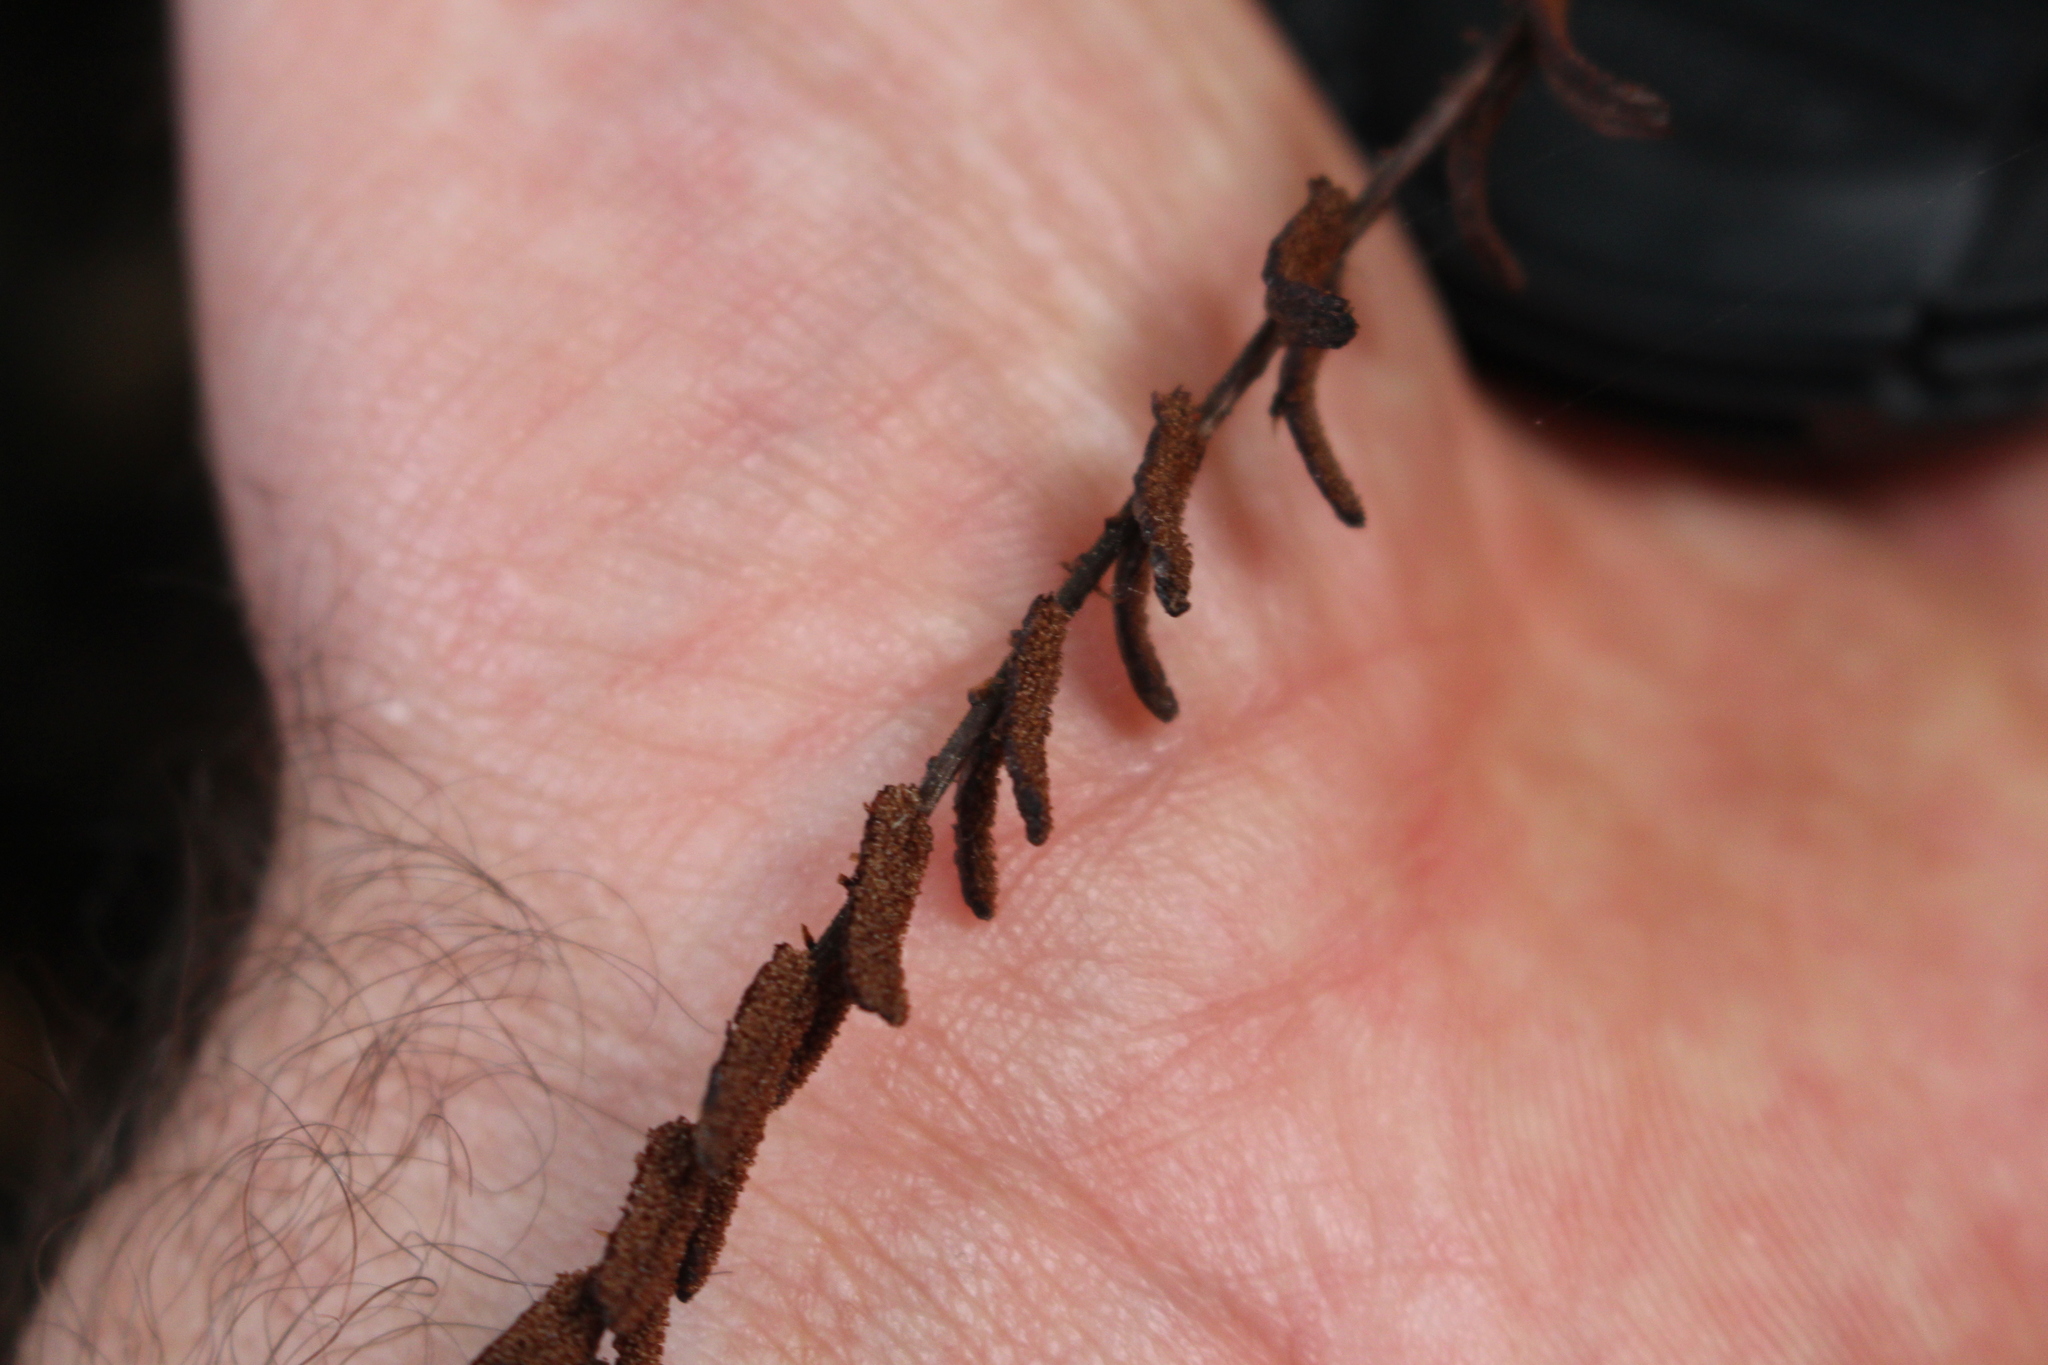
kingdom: Plantae
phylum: Tracheophyta
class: Polypodiopsida
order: Polypodiales
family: Blechnaceae
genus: Cranfillia
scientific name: Cranfillia fluviatilis
